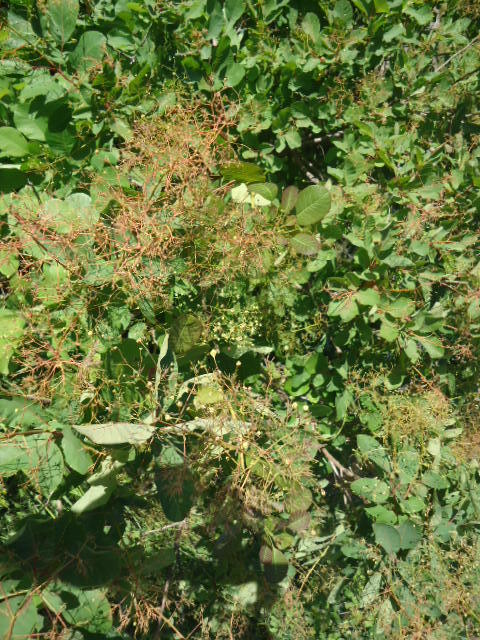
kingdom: Plantae
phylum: Tracheophyta
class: Magnoliopsida
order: Sapindales
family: Anacardiaceae
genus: Cotinus
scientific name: Cotinus coggygria
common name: Smoke-tree
